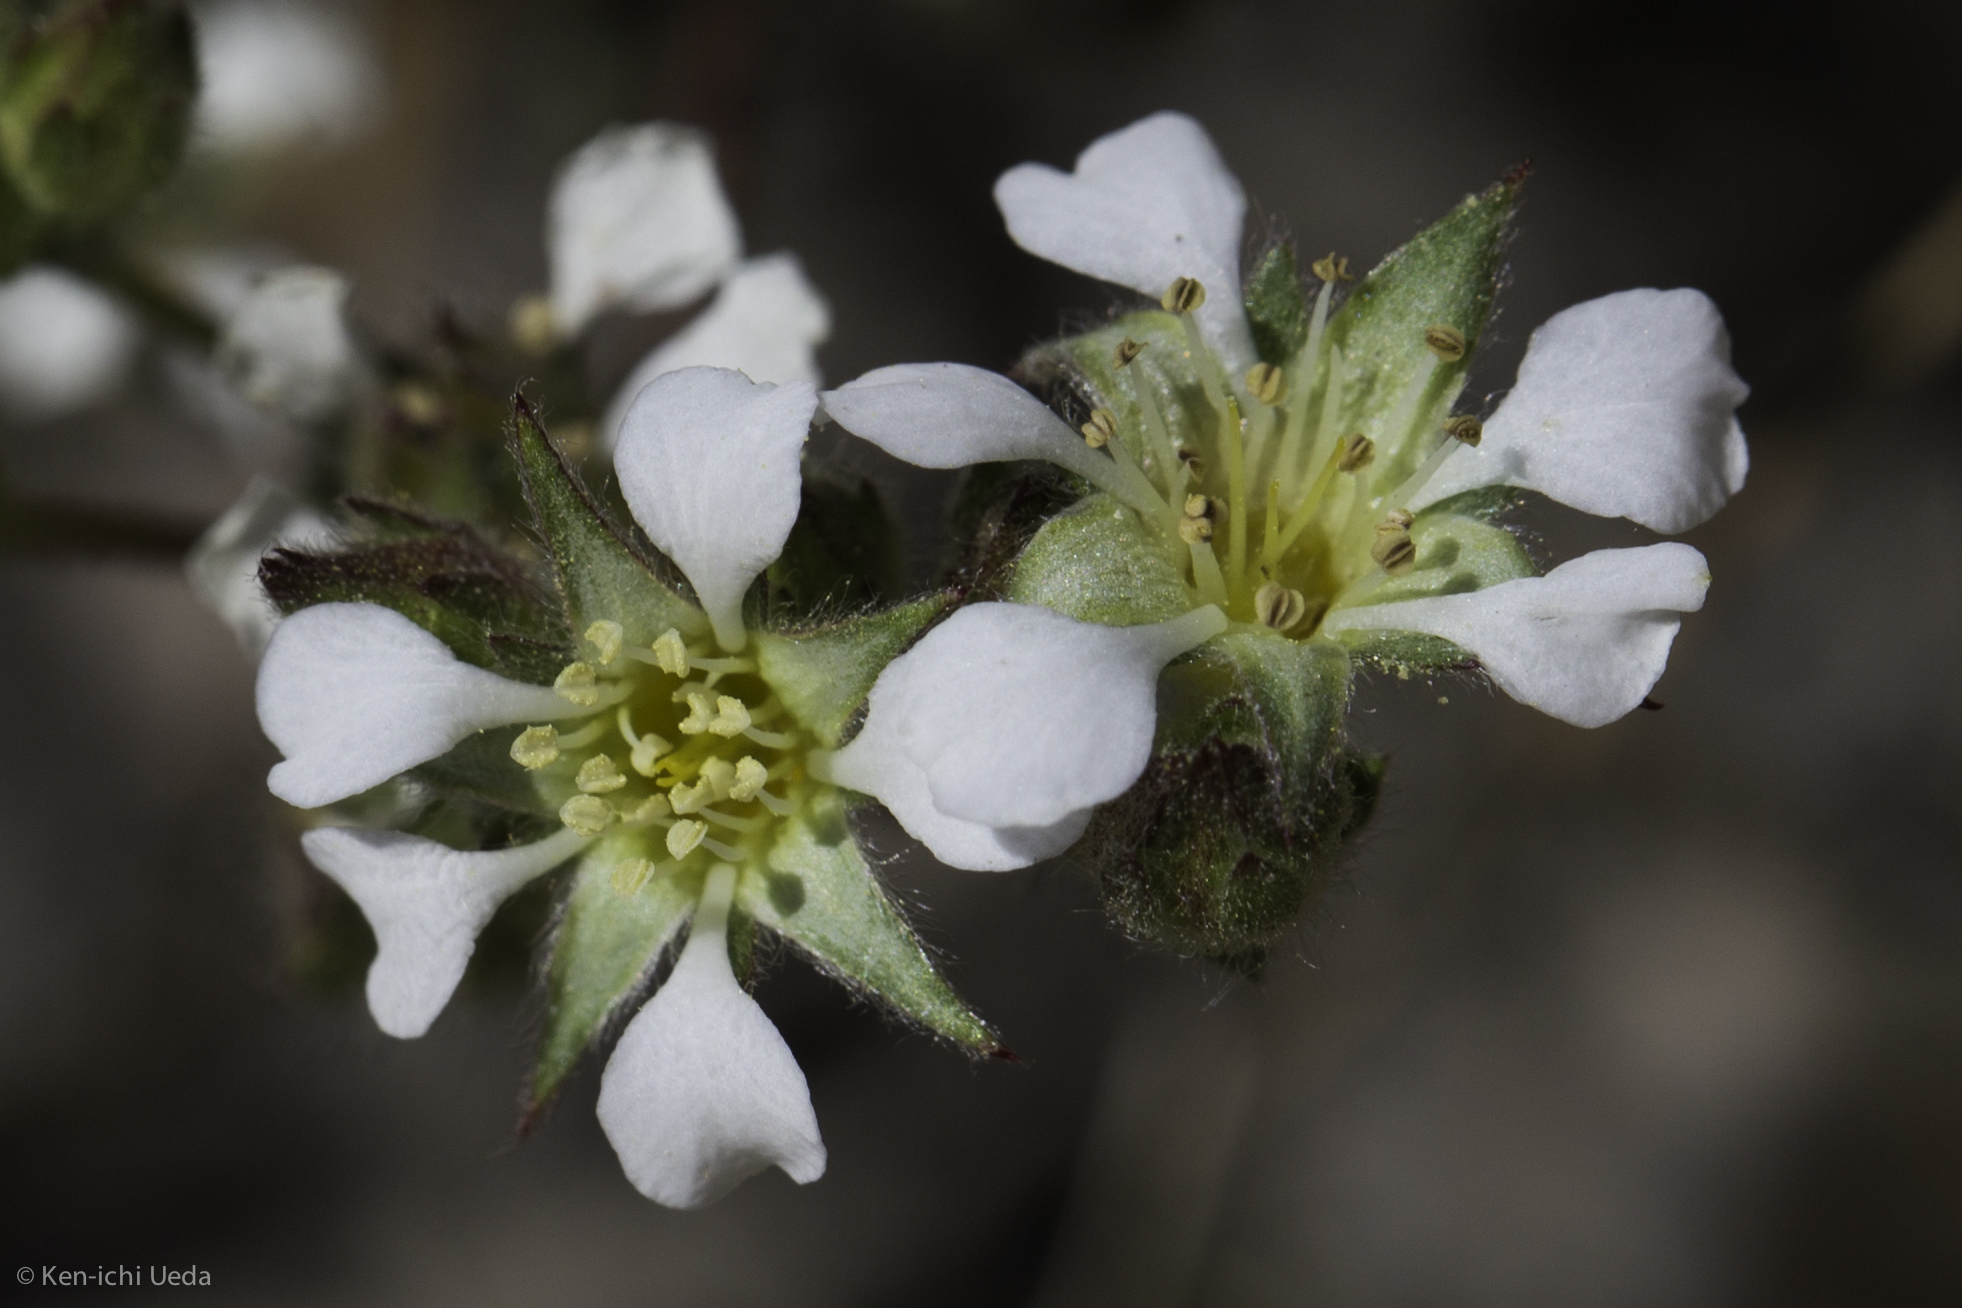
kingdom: Plantae
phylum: Tracheophyta
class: Magnoliopsida
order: Rosales
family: Rosaceae
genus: Potentilla
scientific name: Potentilla sericoleuca
